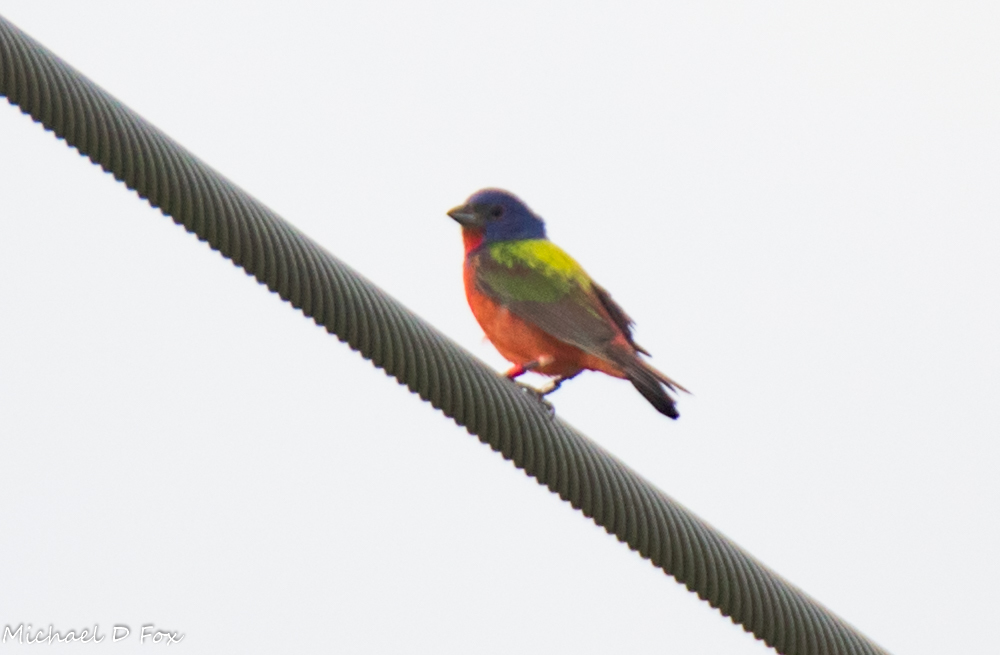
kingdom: Animalia
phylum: Chordata
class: Aves
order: Passeriformes
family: Cardinalidae
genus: Passerina
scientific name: Passerina ciris
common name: Painted bunting
